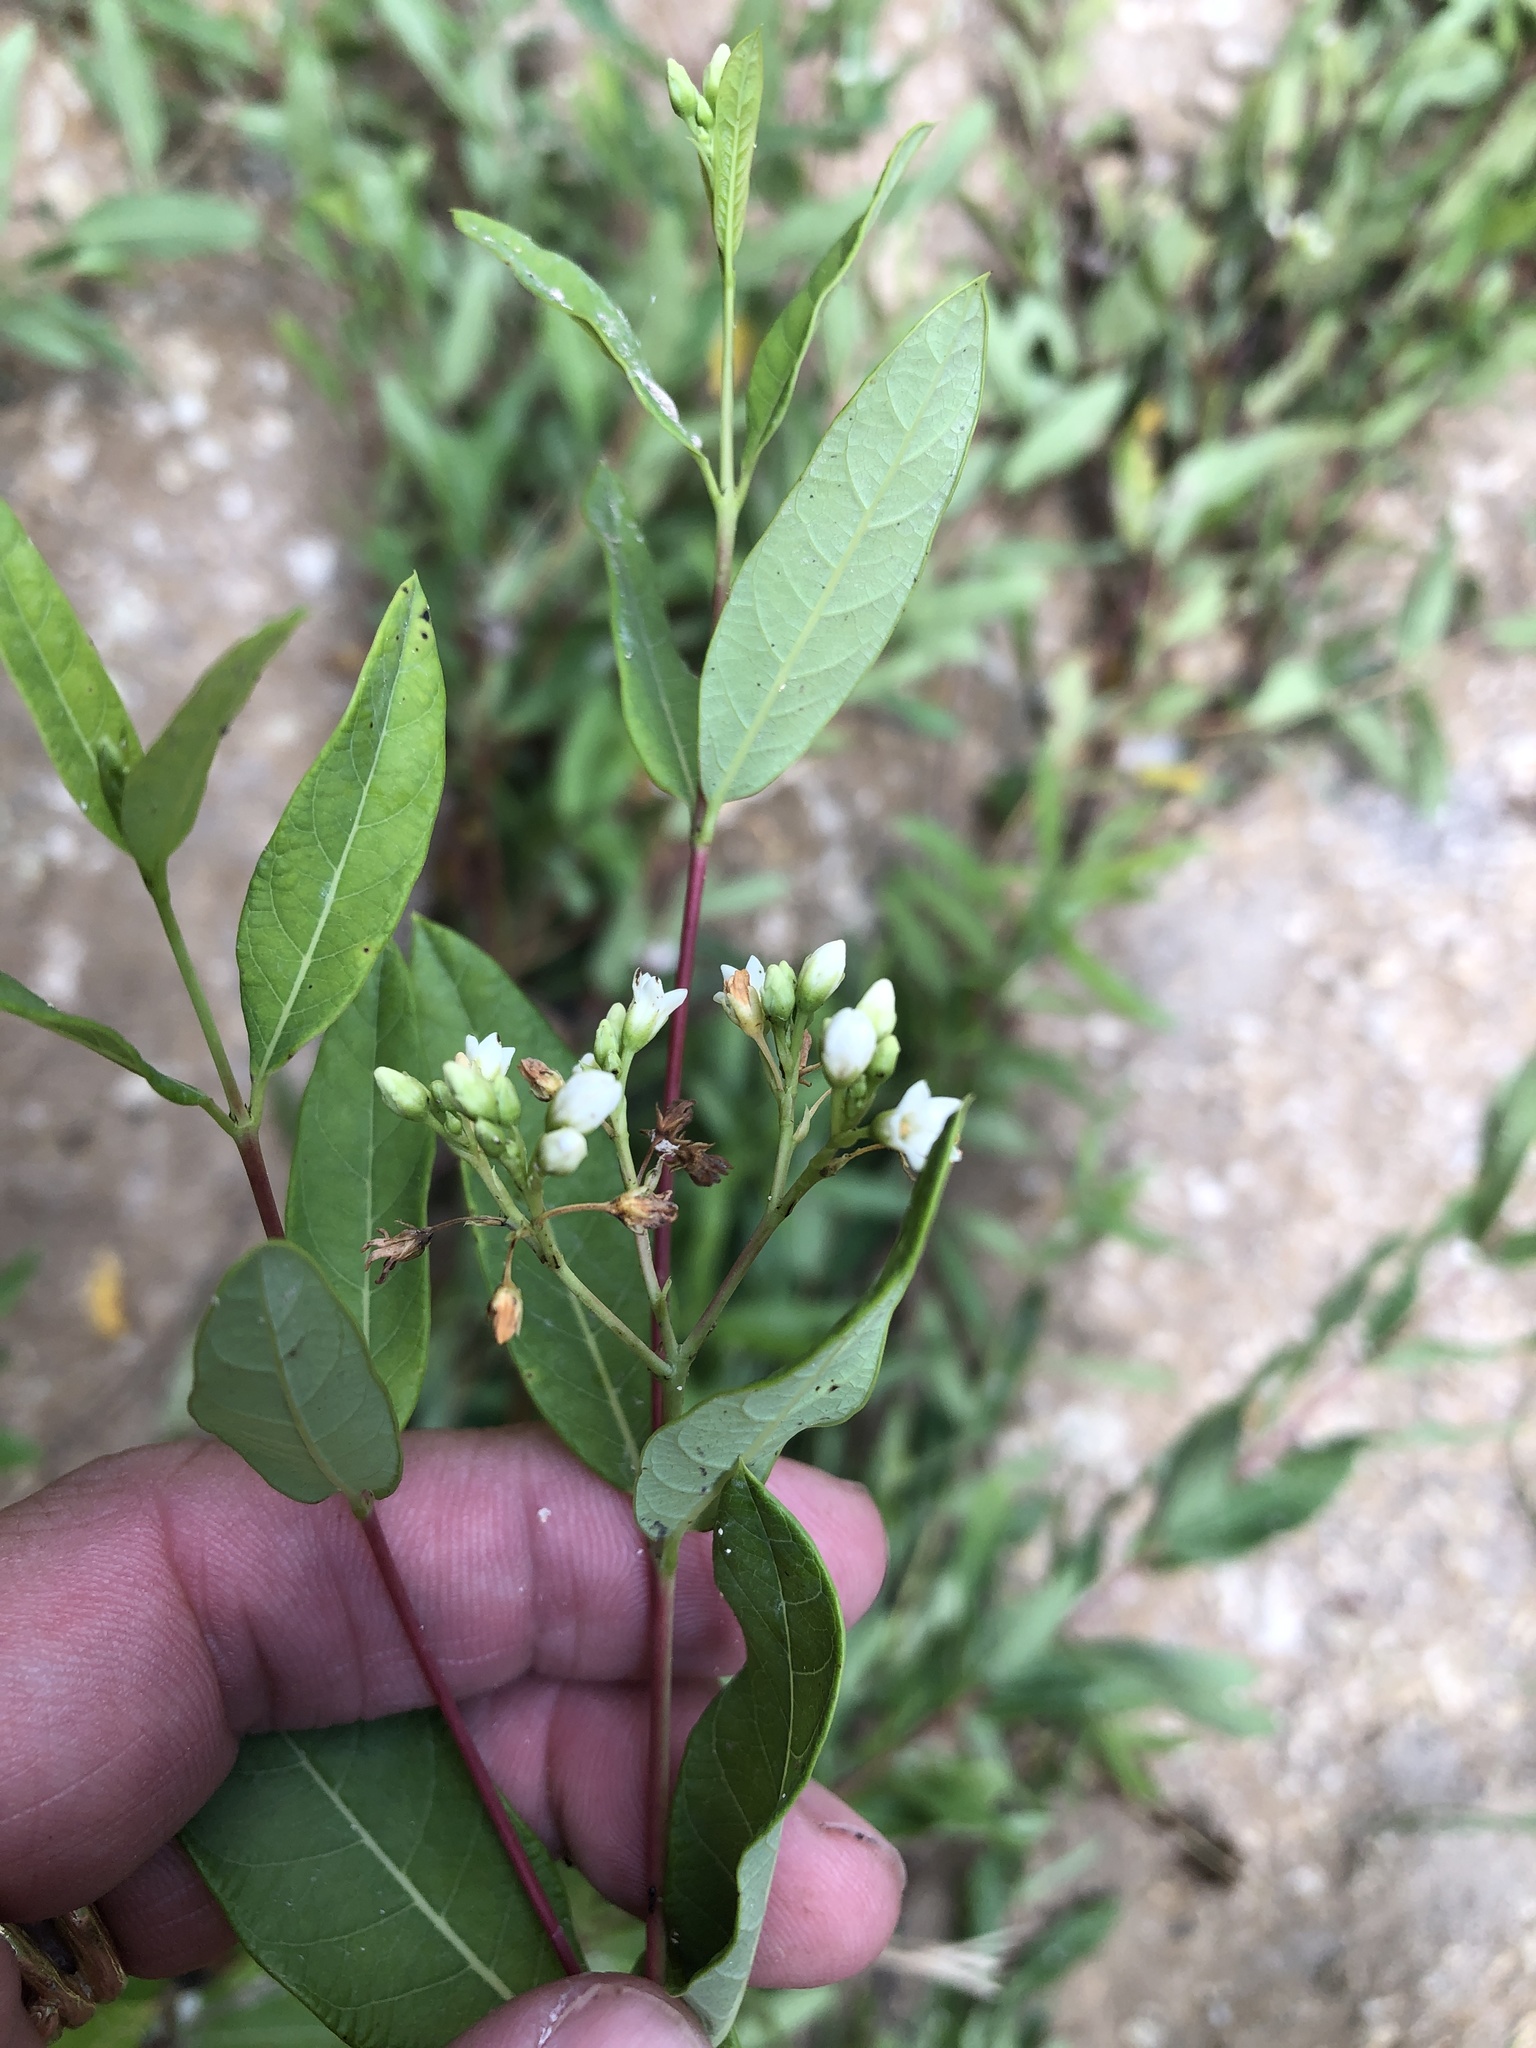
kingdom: Plantae
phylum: Tracheophyta
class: Magnoliopsida
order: Gentianales
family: Apocynaceae
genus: Apocynum
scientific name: Apocynum cannabinum
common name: Hemp dogbane
